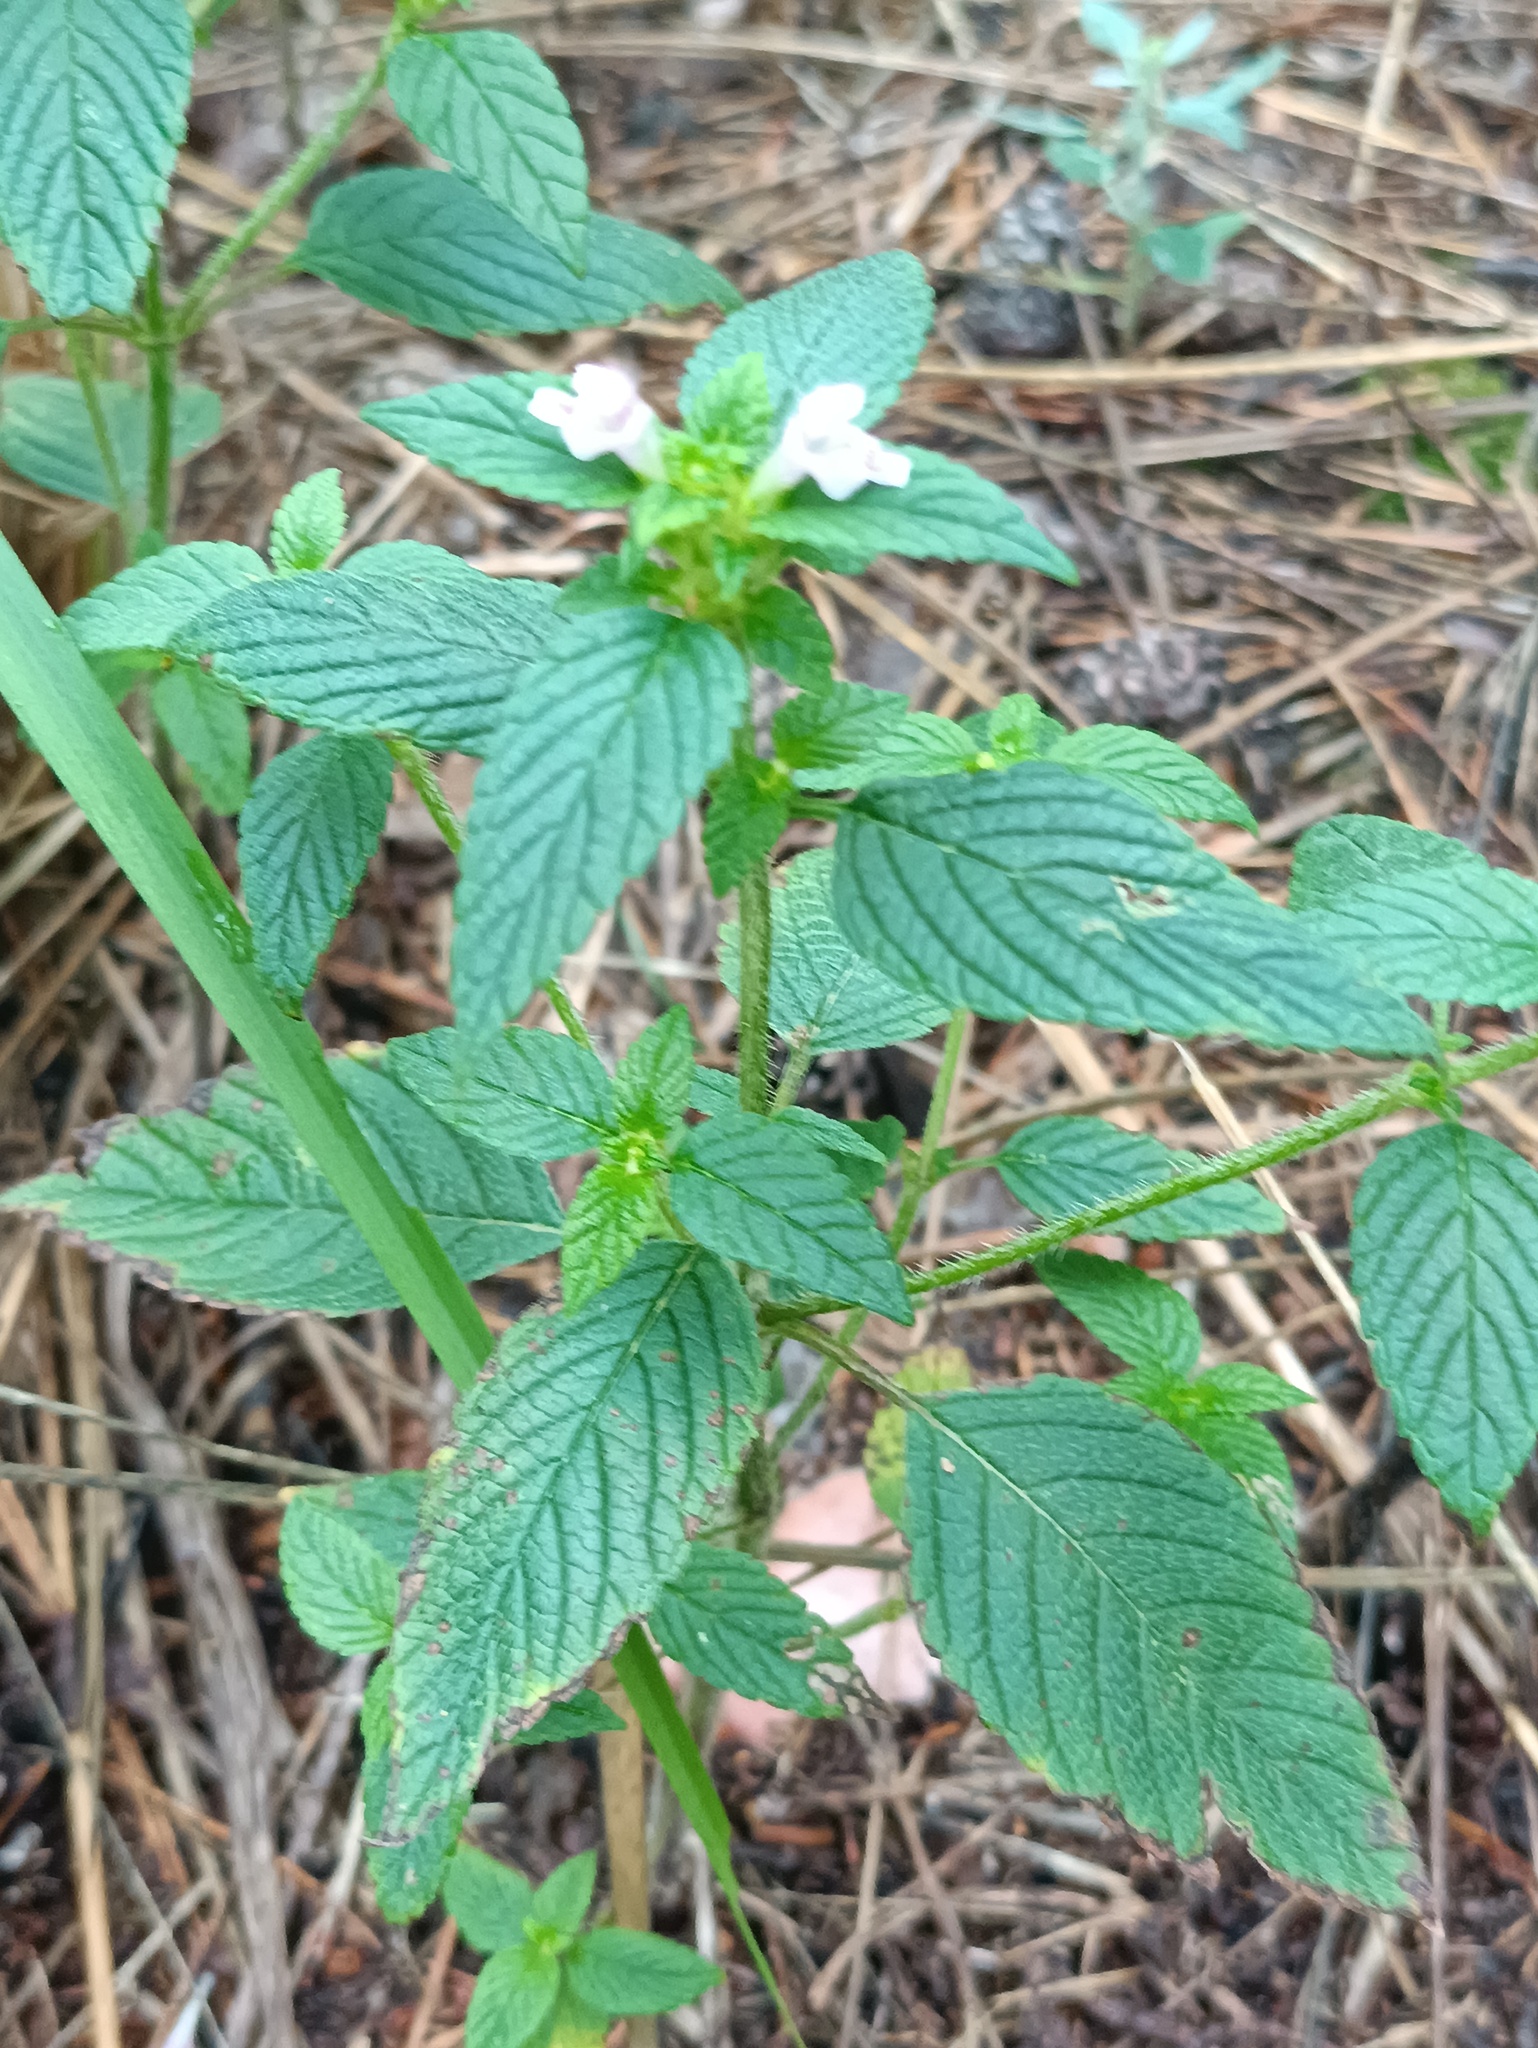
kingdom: Plantae
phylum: Tracheophyta
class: Magnoliopsida
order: Lamiales
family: Lamiaceae
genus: Galeopsis
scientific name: Galeopsis bifida
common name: Bifid hemp-nettle
